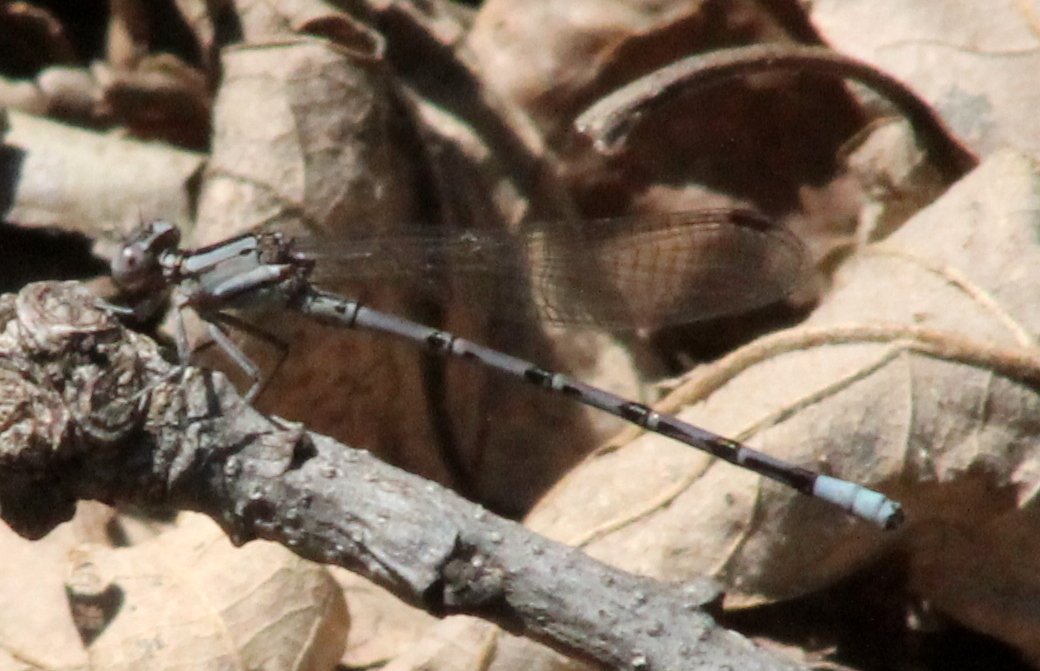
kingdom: Animalia
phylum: Arthropoda
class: Insecta
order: Odonata
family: Coenagrionidae
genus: Argia
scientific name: Argia funebris
